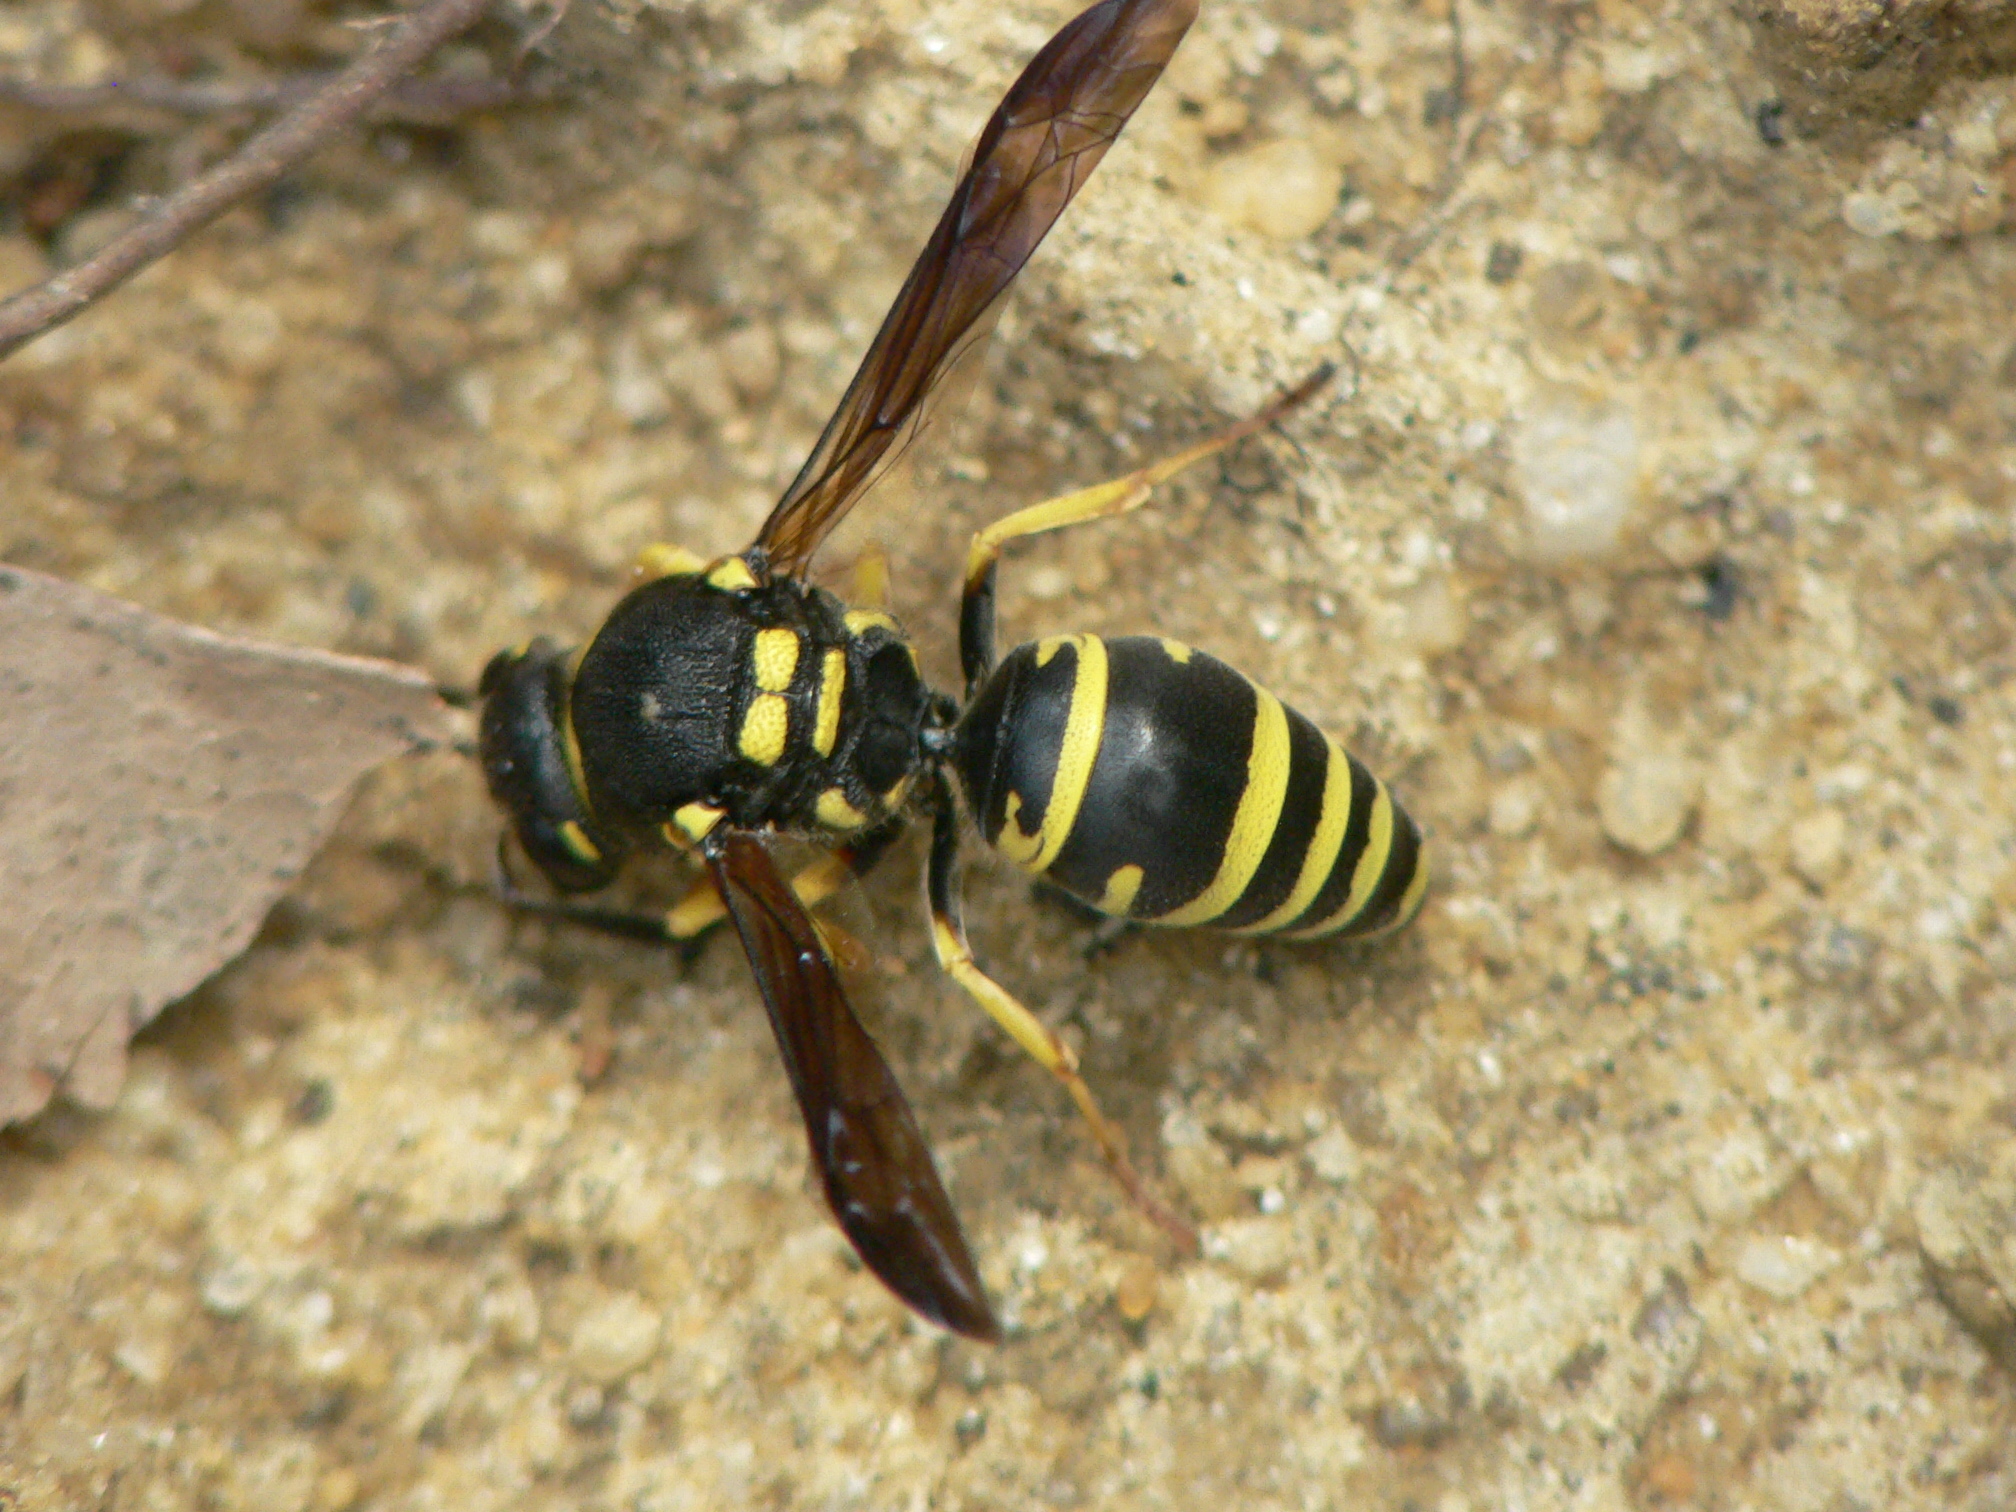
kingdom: Animalia
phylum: Arthropoda
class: Insecta
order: Hymenoptera
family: Vespidae
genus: Ancistrocerus
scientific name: Ancistrocerus lutonidus
